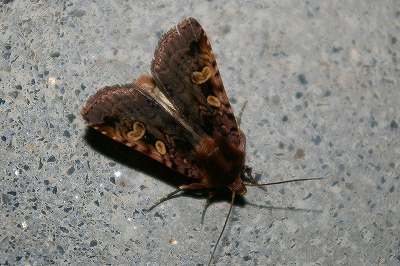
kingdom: Animalia
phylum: Arthropoda
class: Insecta
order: Lepidoptera
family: Noctuidae
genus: Diarsia
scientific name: Diarsia dewitzi
